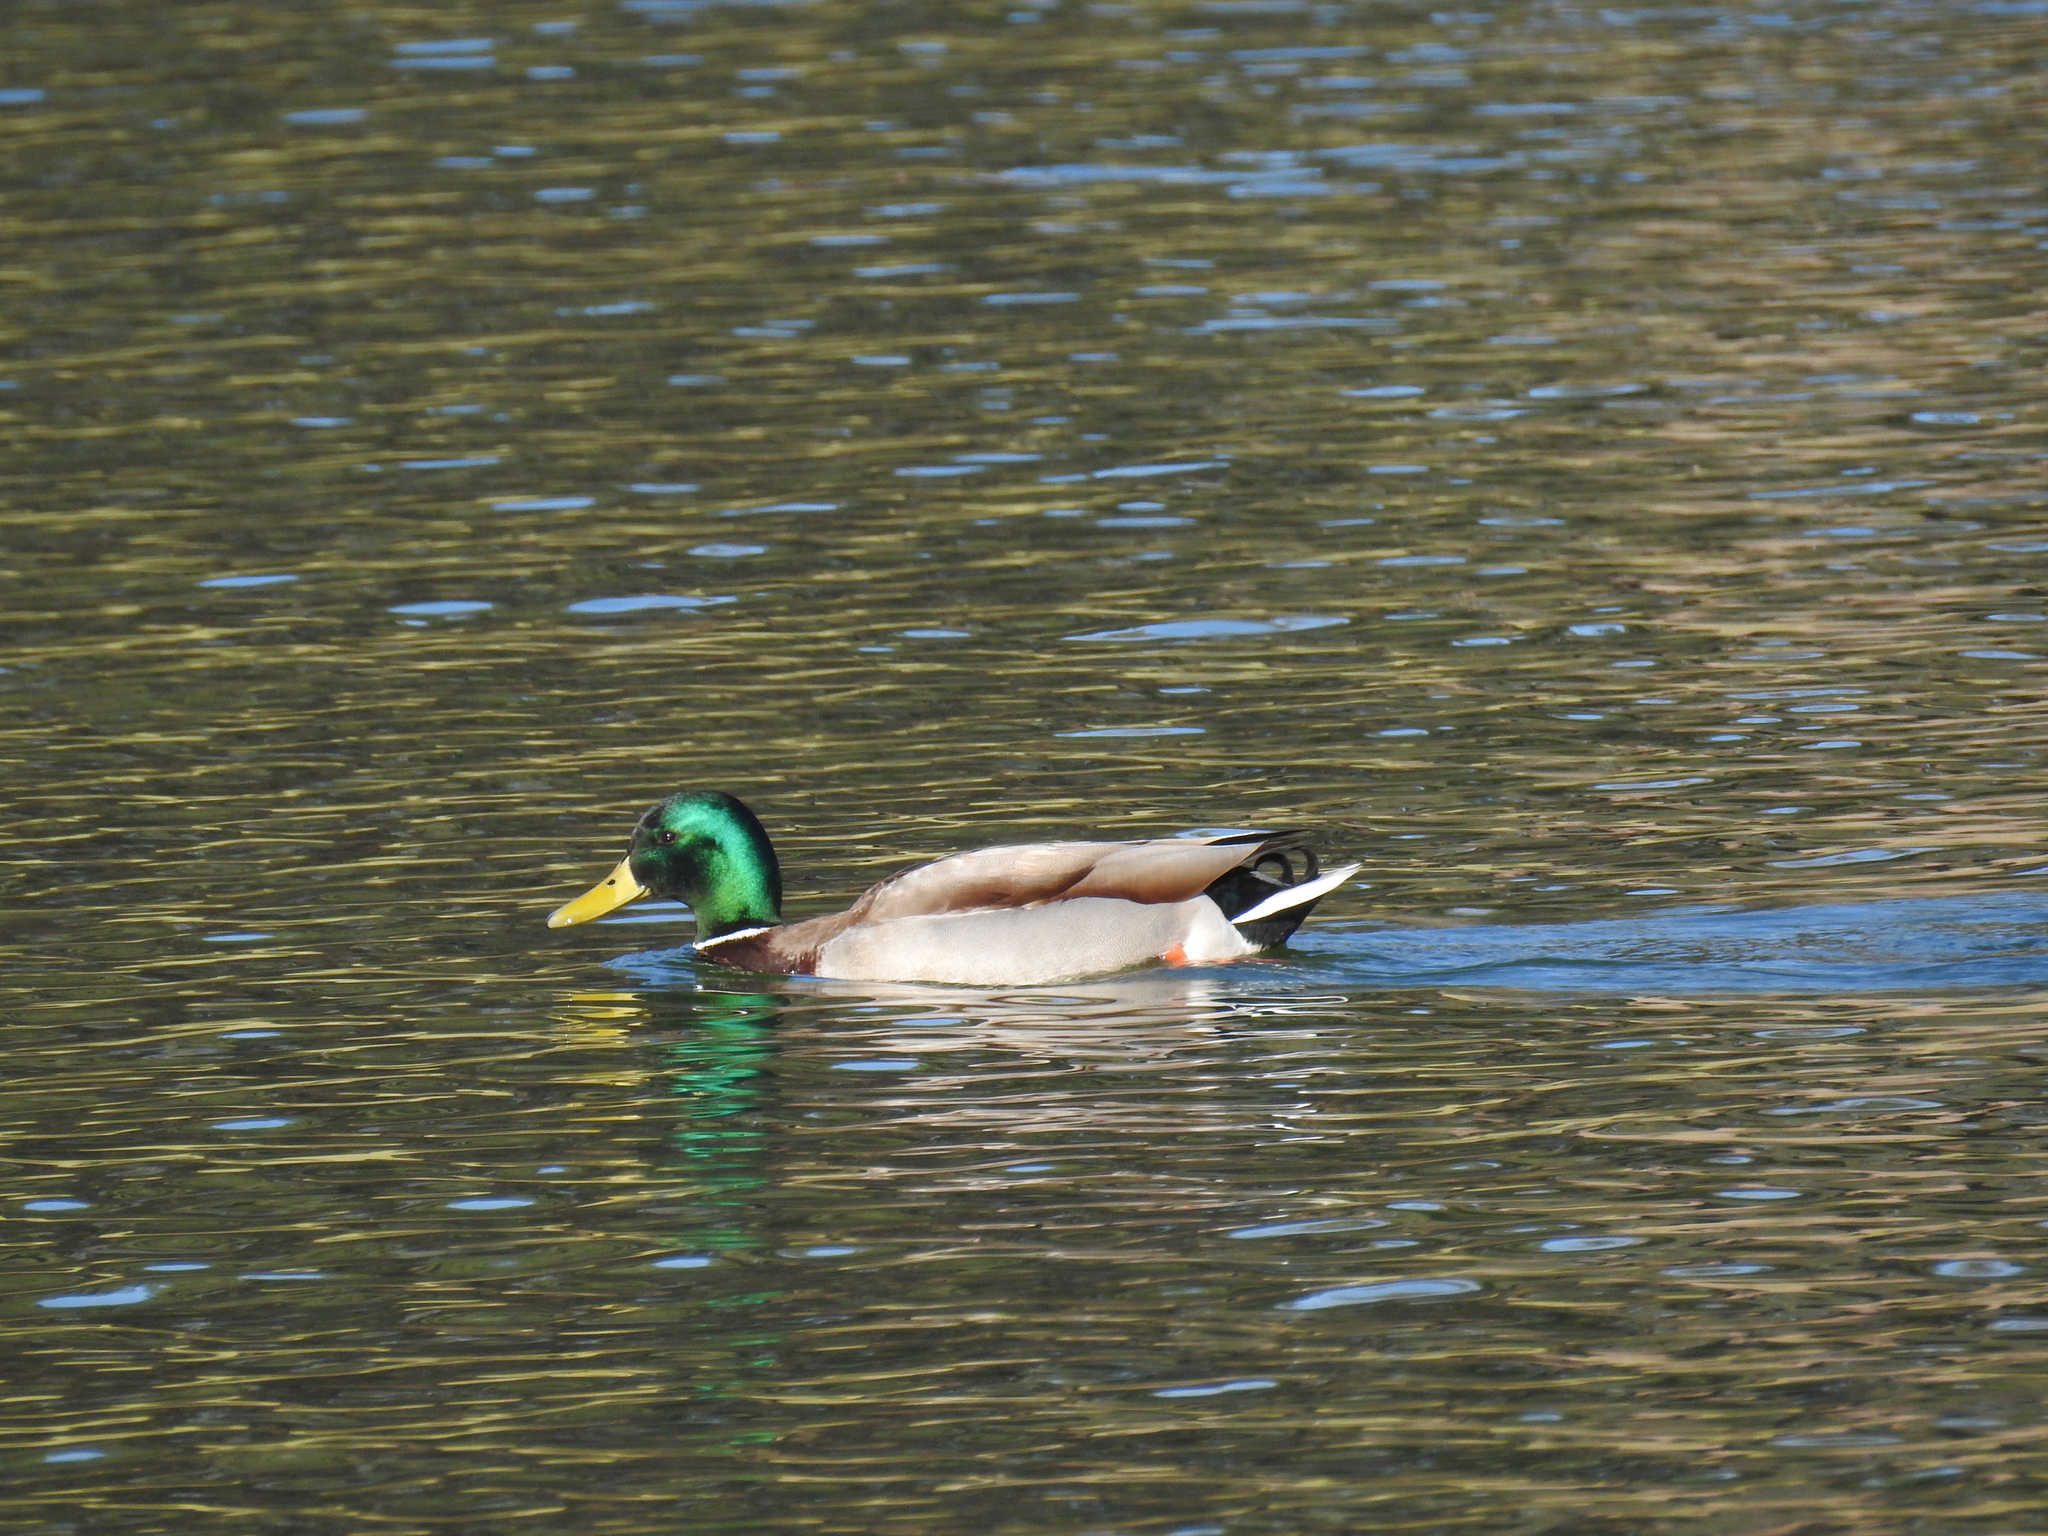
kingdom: Animalia
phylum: Chordata
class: Aves
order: Anseriformes
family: Anatidae
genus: Anas
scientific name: Anas platyrhynchos
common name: Mallard
